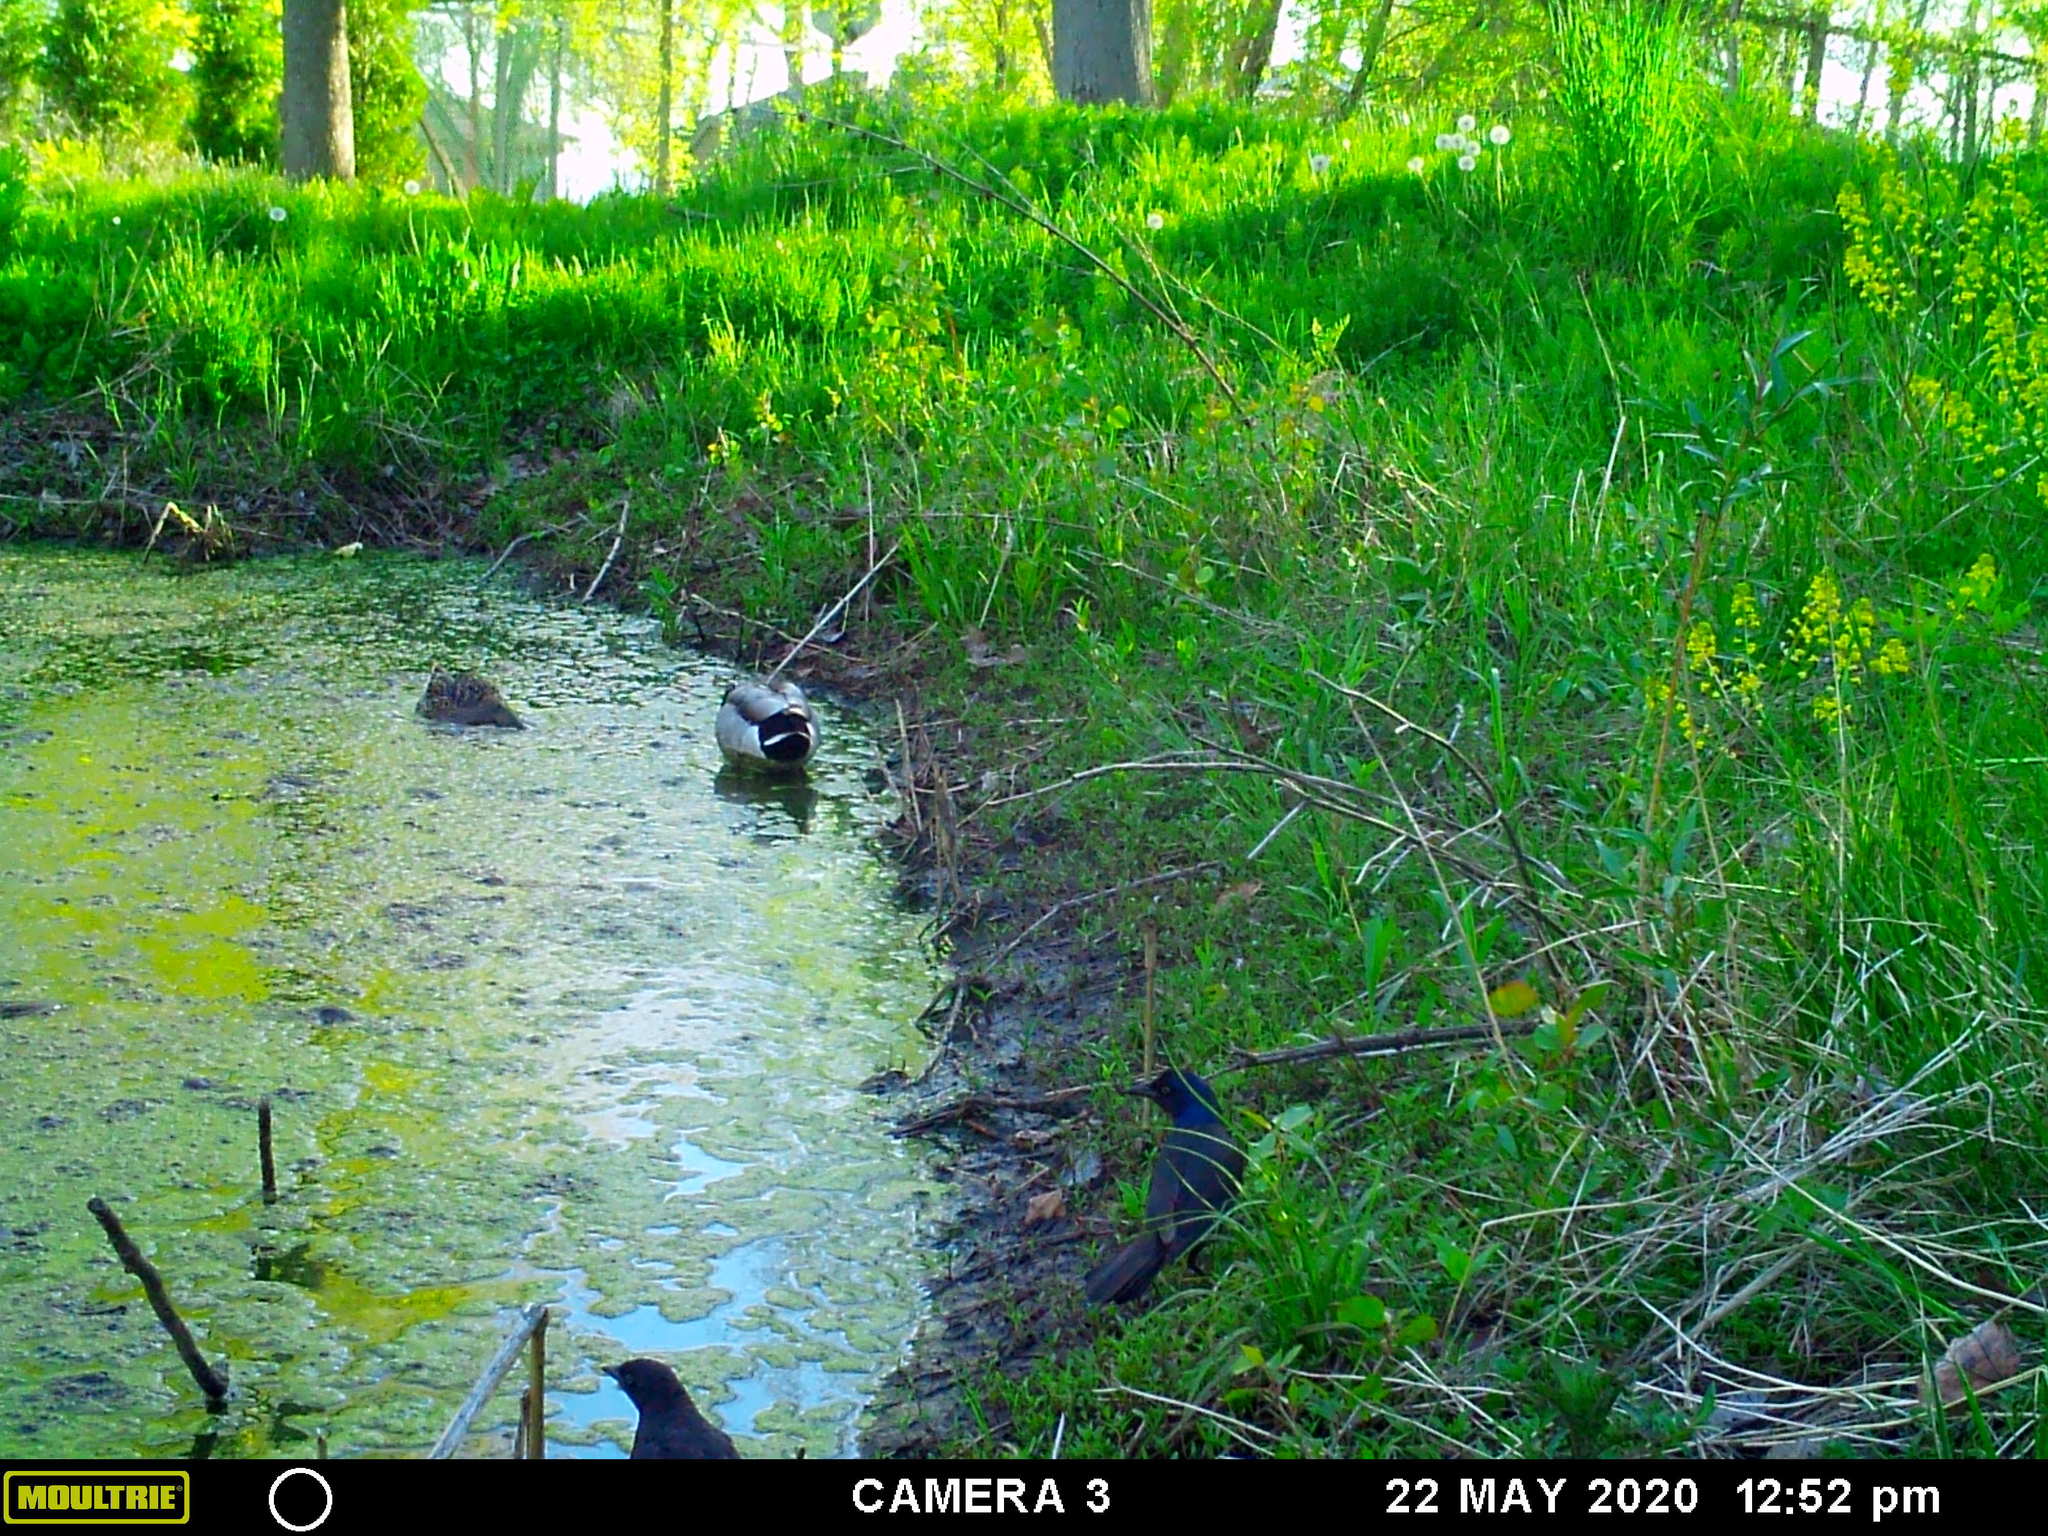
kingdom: Animalia
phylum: Chordata
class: Aves
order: Passeriformes
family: Icteridae
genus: Quiscalus
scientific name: Quiscalus quiscula
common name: Common grackle
